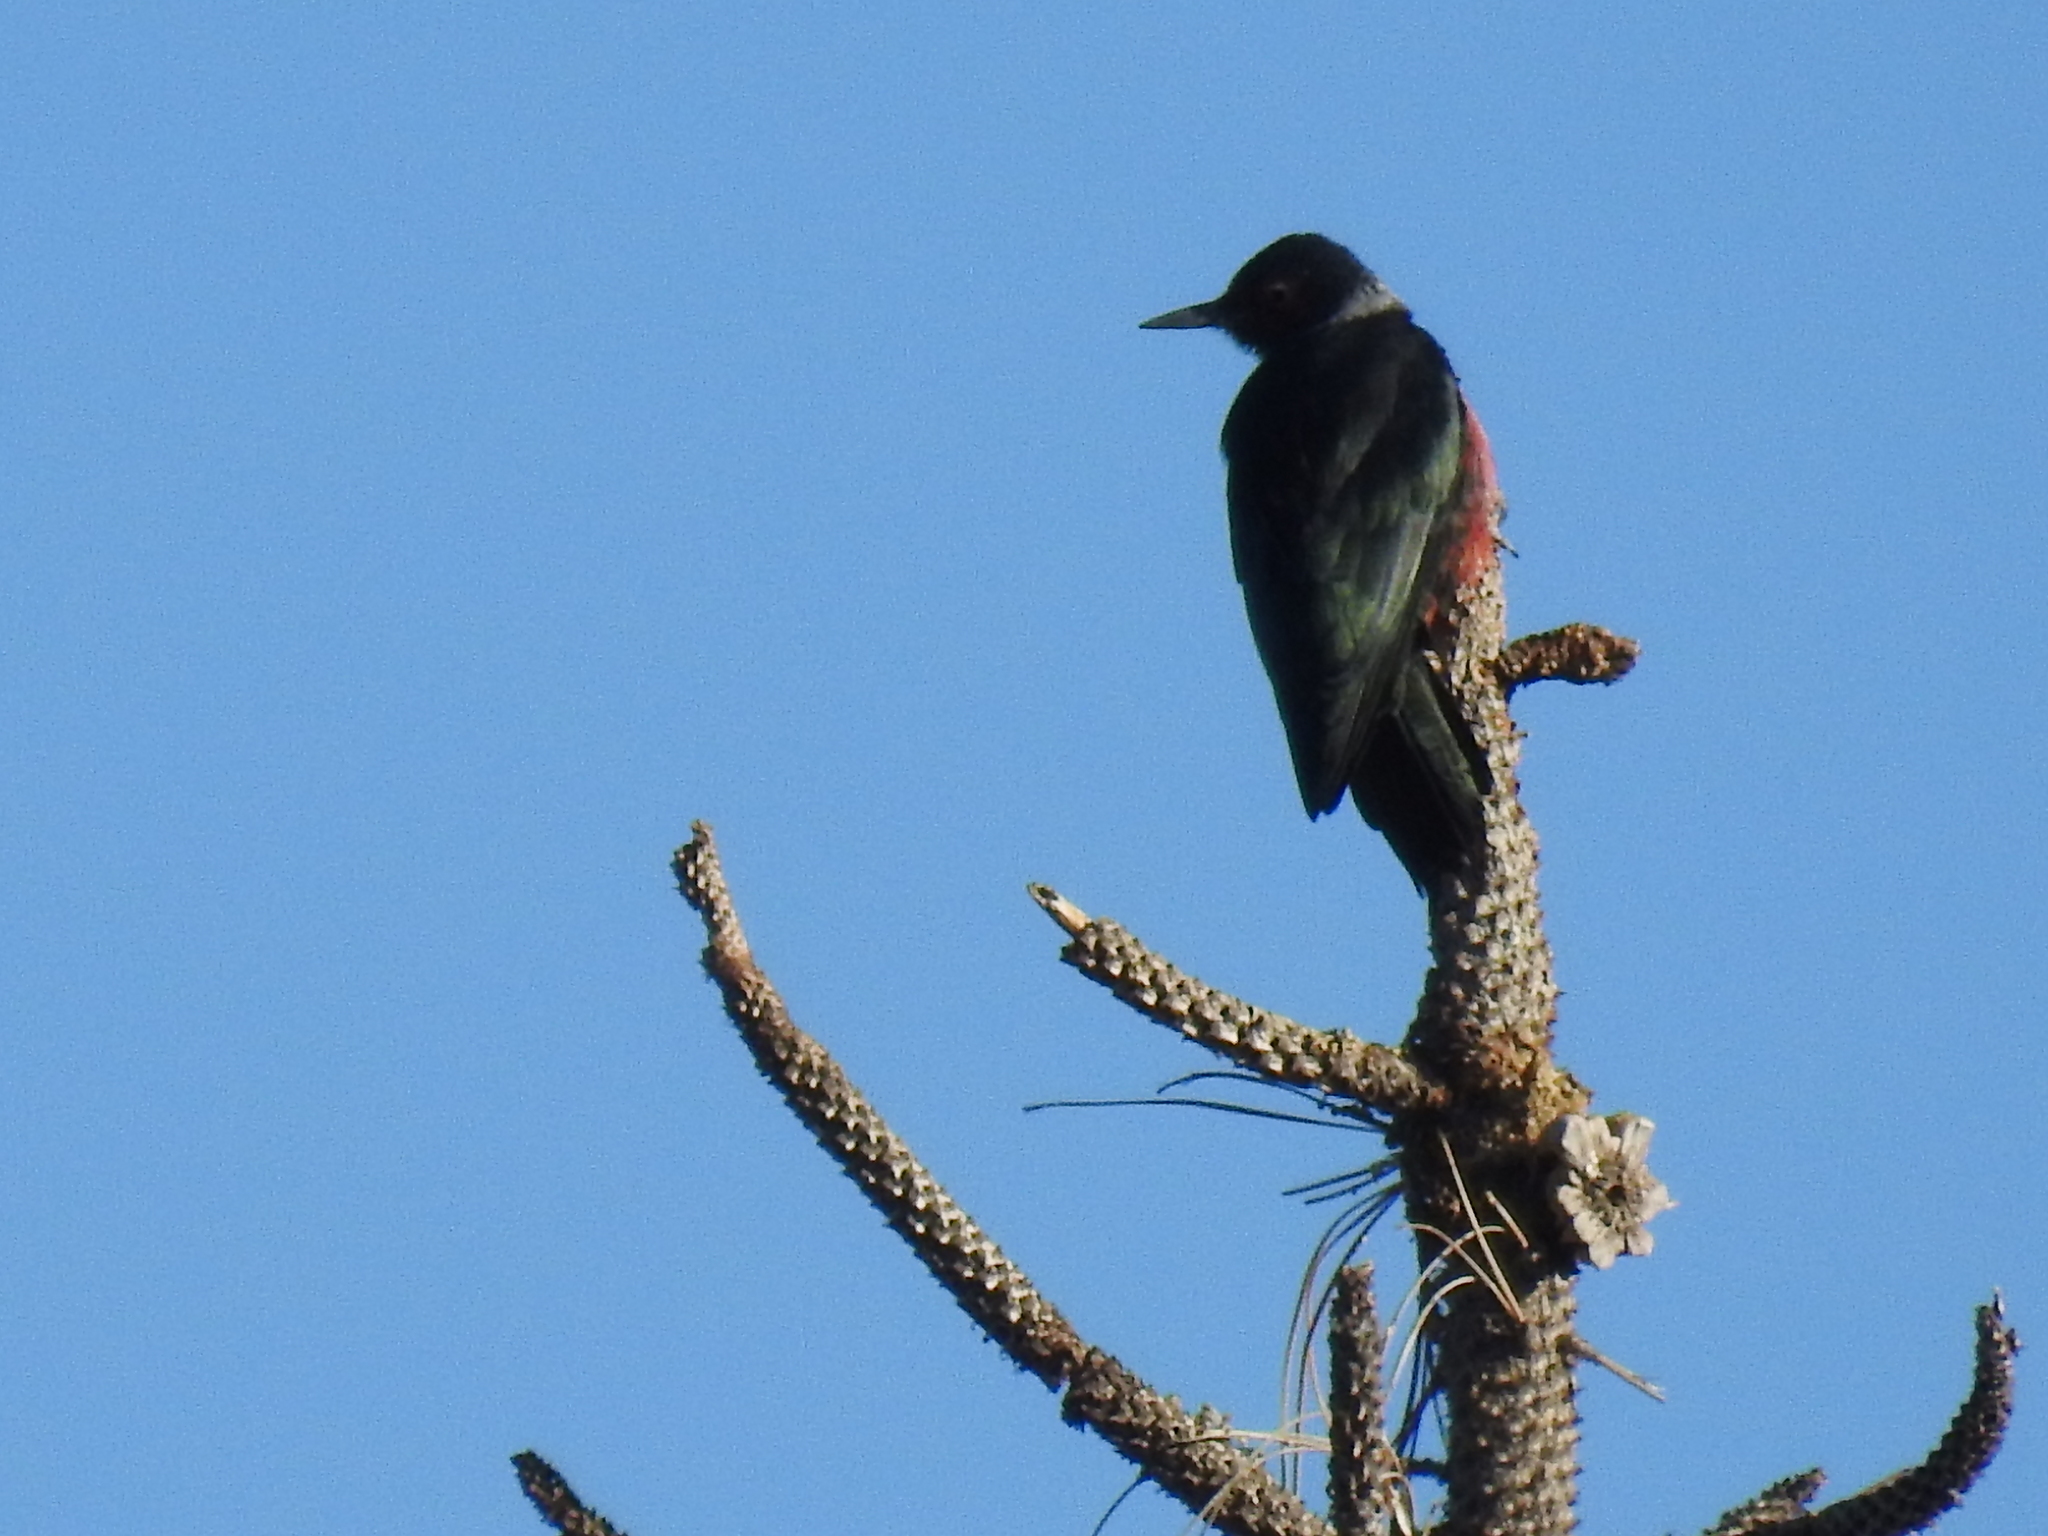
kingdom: Animalia
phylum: Chordata
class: Aves
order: Piciformes
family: Picidae
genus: Melanerpes
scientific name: Melanerpes lewis
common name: Lewis's woodpecker
